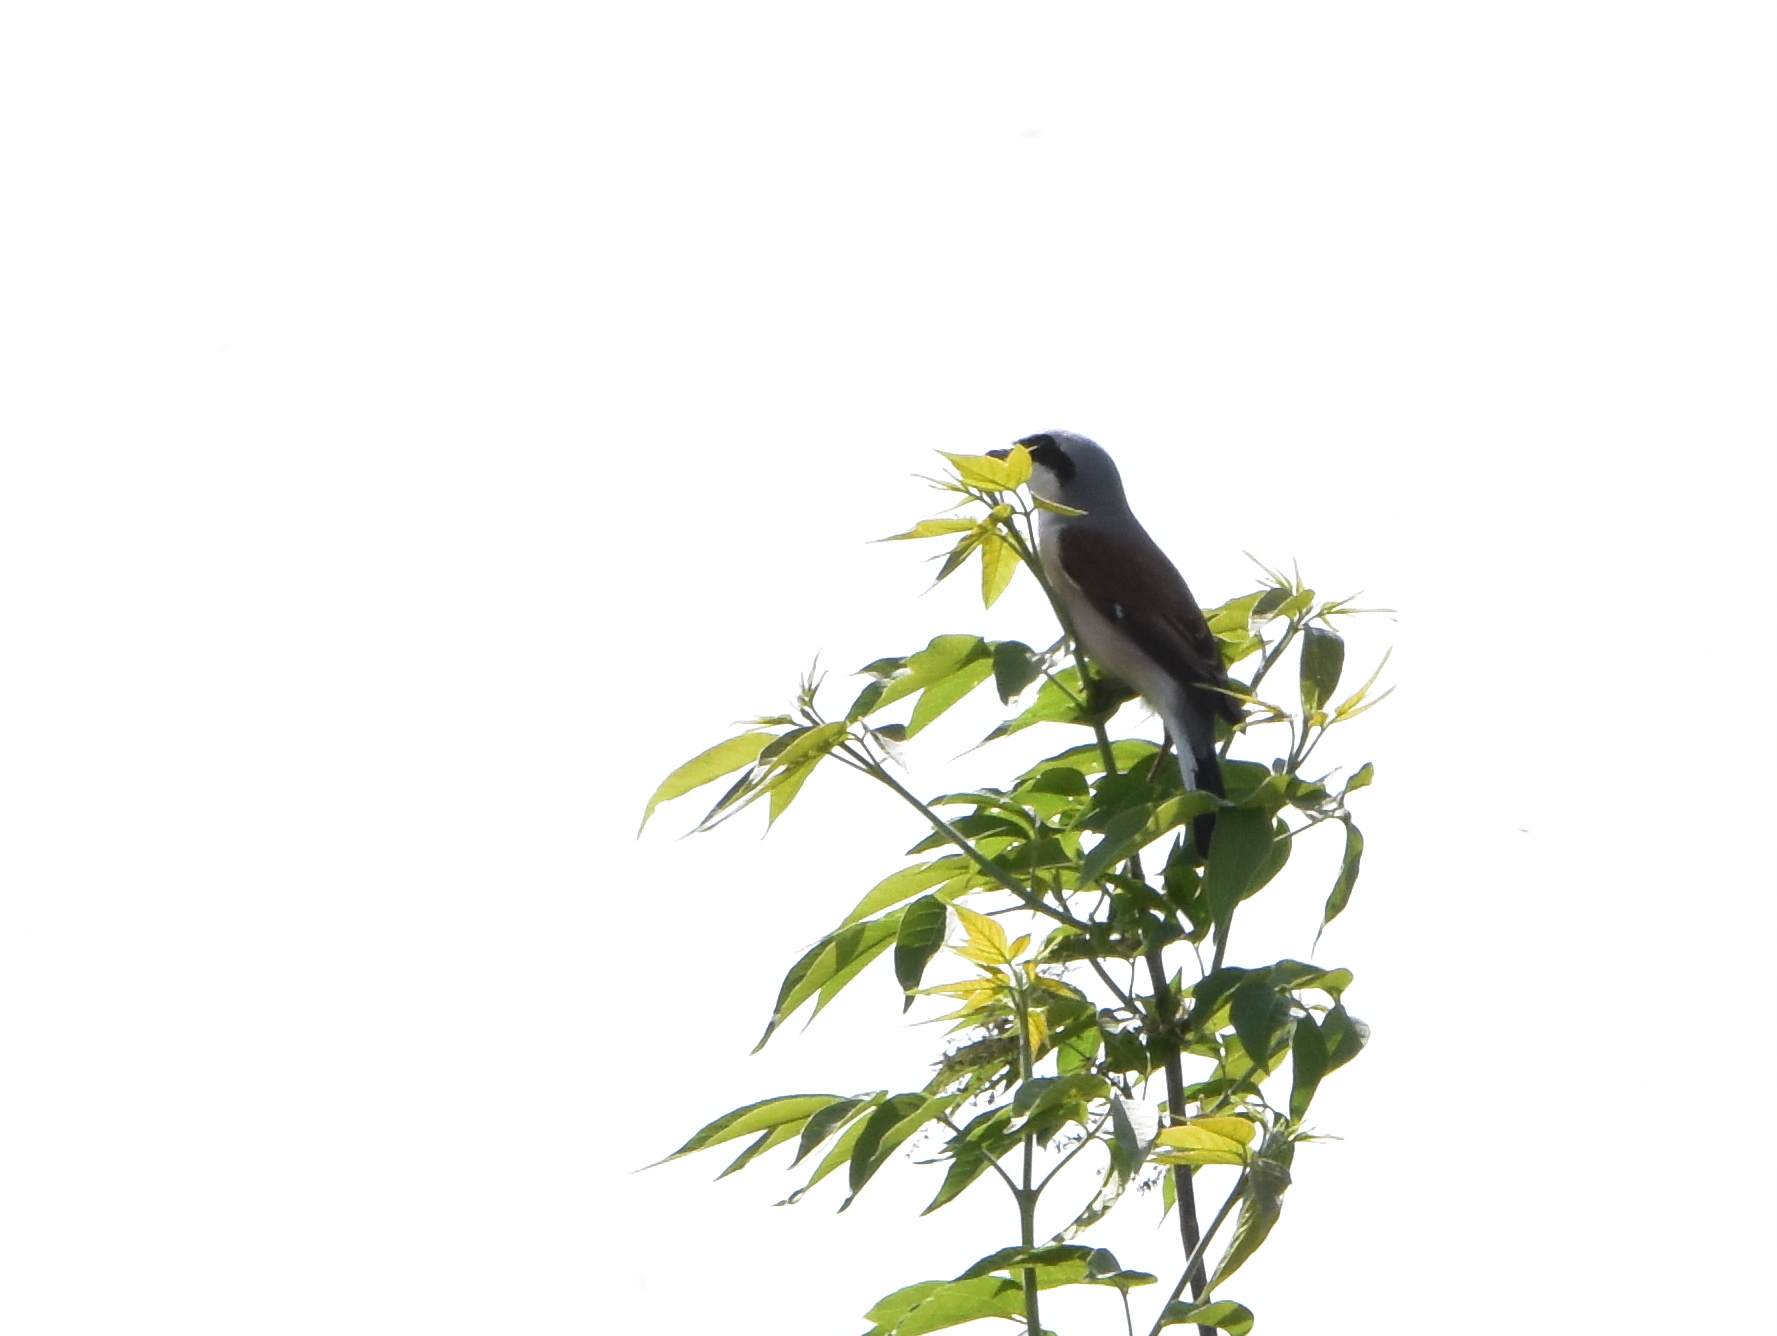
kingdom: Animalia
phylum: Chordata
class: Aves
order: Passeriformes
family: Laniidae
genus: Lanius
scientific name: Lanius collurio
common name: Red-backed shrike
